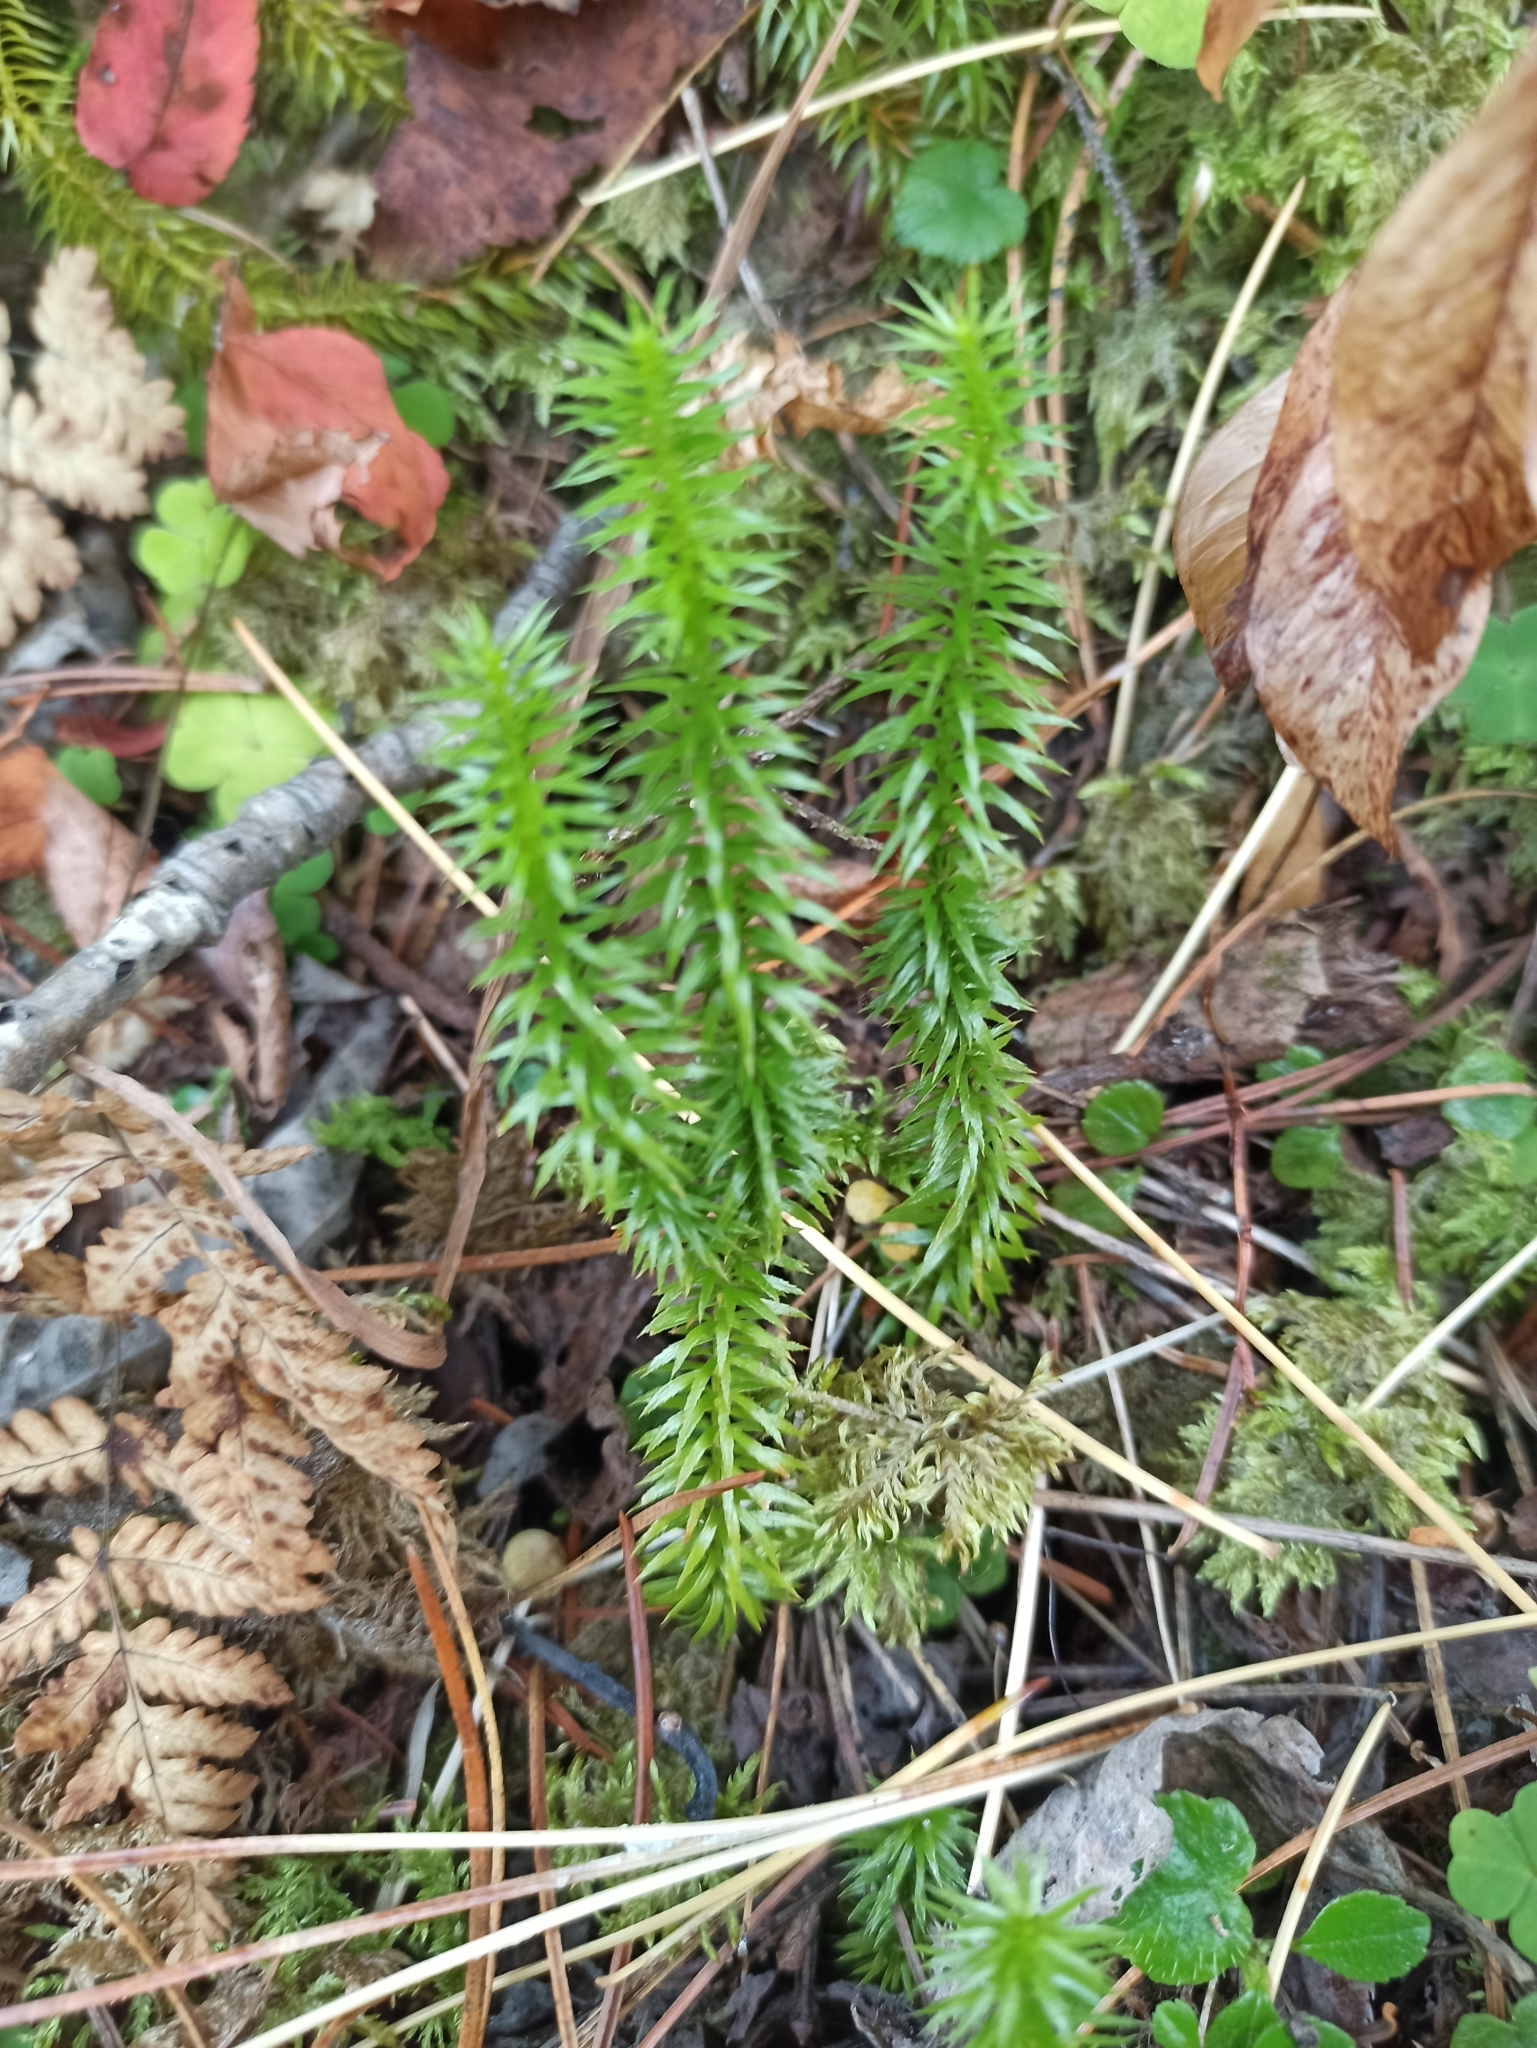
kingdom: Plantae
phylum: Tracheophyta
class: Lycopodiopsida
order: Lycopodiales
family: Lycopodiaceae
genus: Spinulum
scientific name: Spinulum annotinum
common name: Interrupted club-moss
